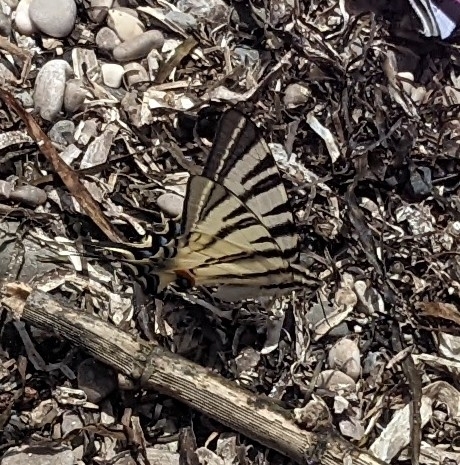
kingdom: Animalia
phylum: Arthropoda
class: Insecta
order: Lepidoptera
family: Papilionidae
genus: Iphiclides
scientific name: Iphiclides podalirius
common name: Scarce swallowtail
